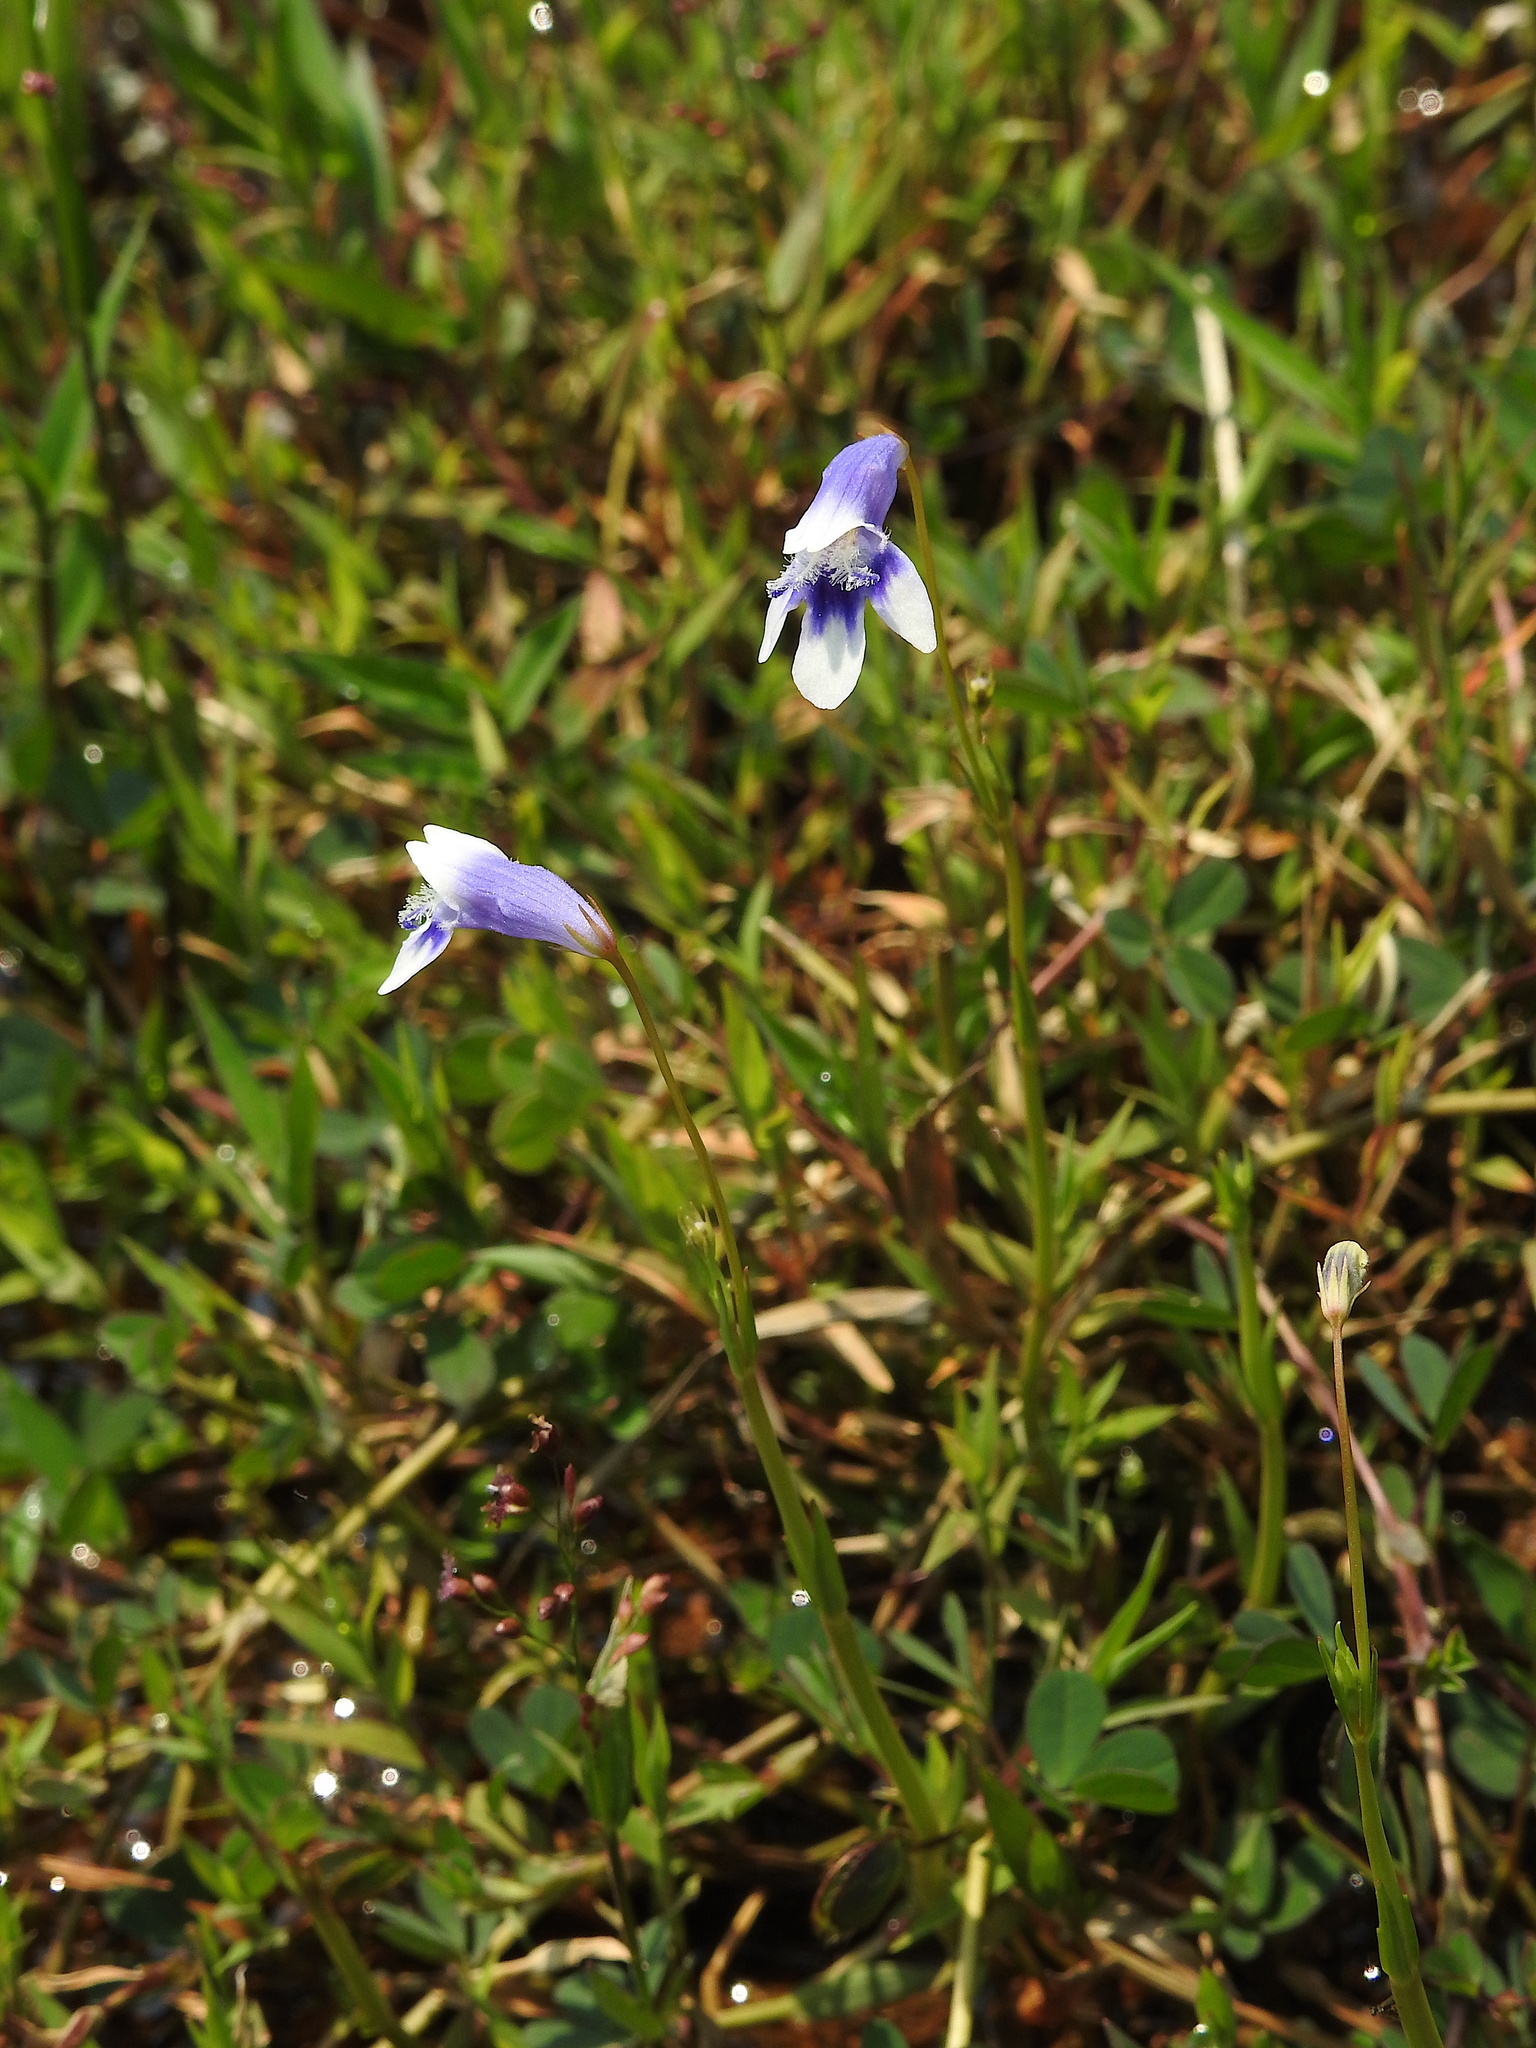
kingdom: Plantae
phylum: Tracheophyta
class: Magnoliopsida
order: Lamiales
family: Linderniaceae
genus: Lindernia
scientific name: Lindernia hyssopioides
